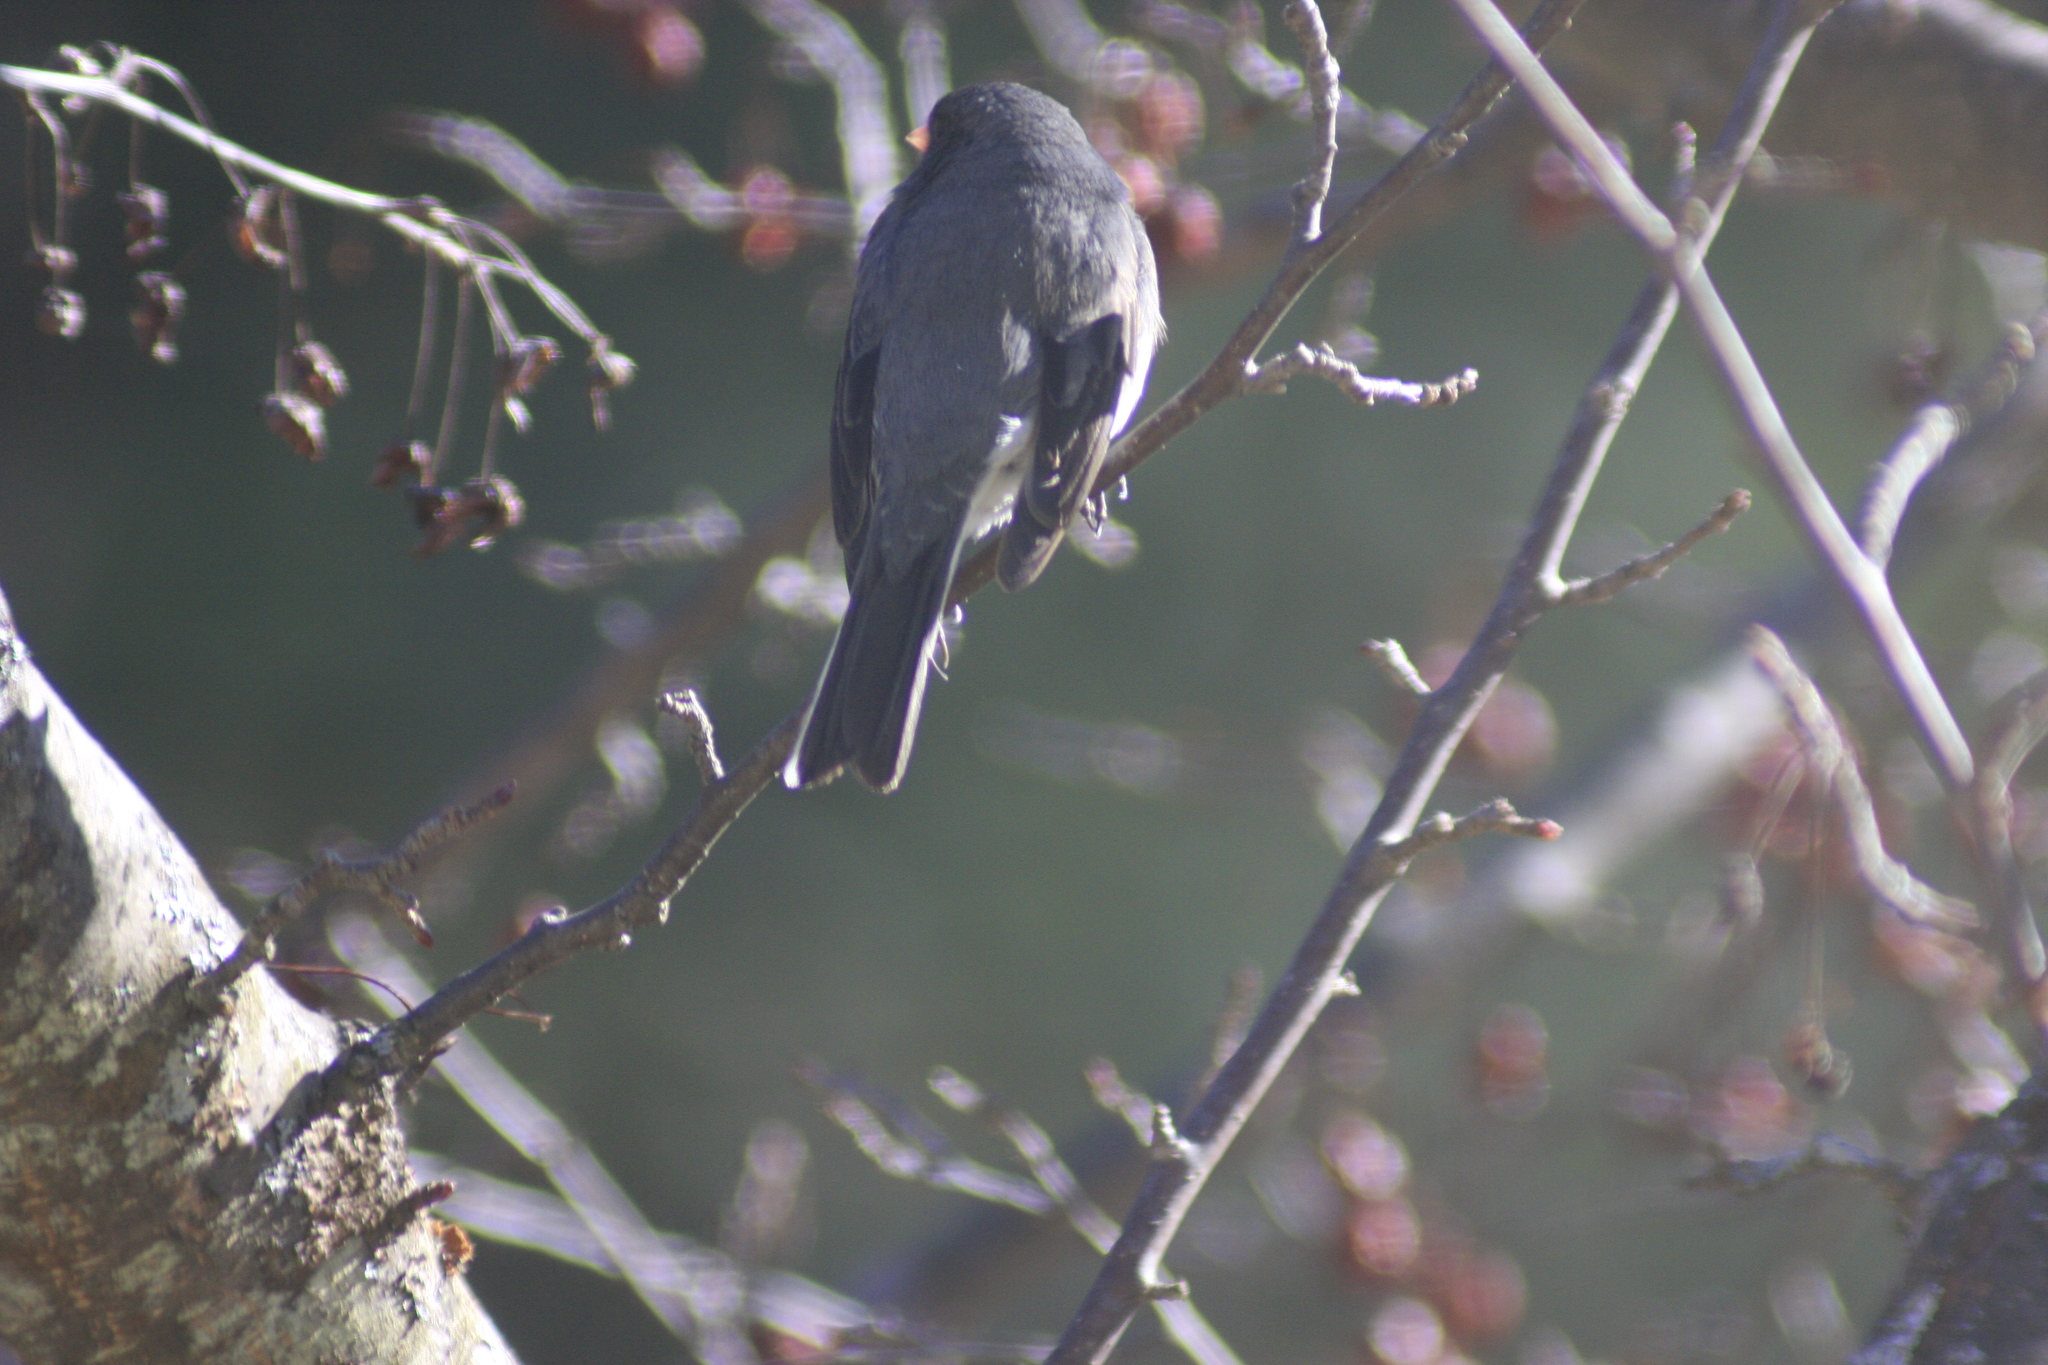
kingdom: Animalia
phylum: Chordata
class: Aves
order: Passeriformes
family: Passerellidae
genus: Junco
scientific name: Junco hyemalis
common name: Dark-eyed junco
